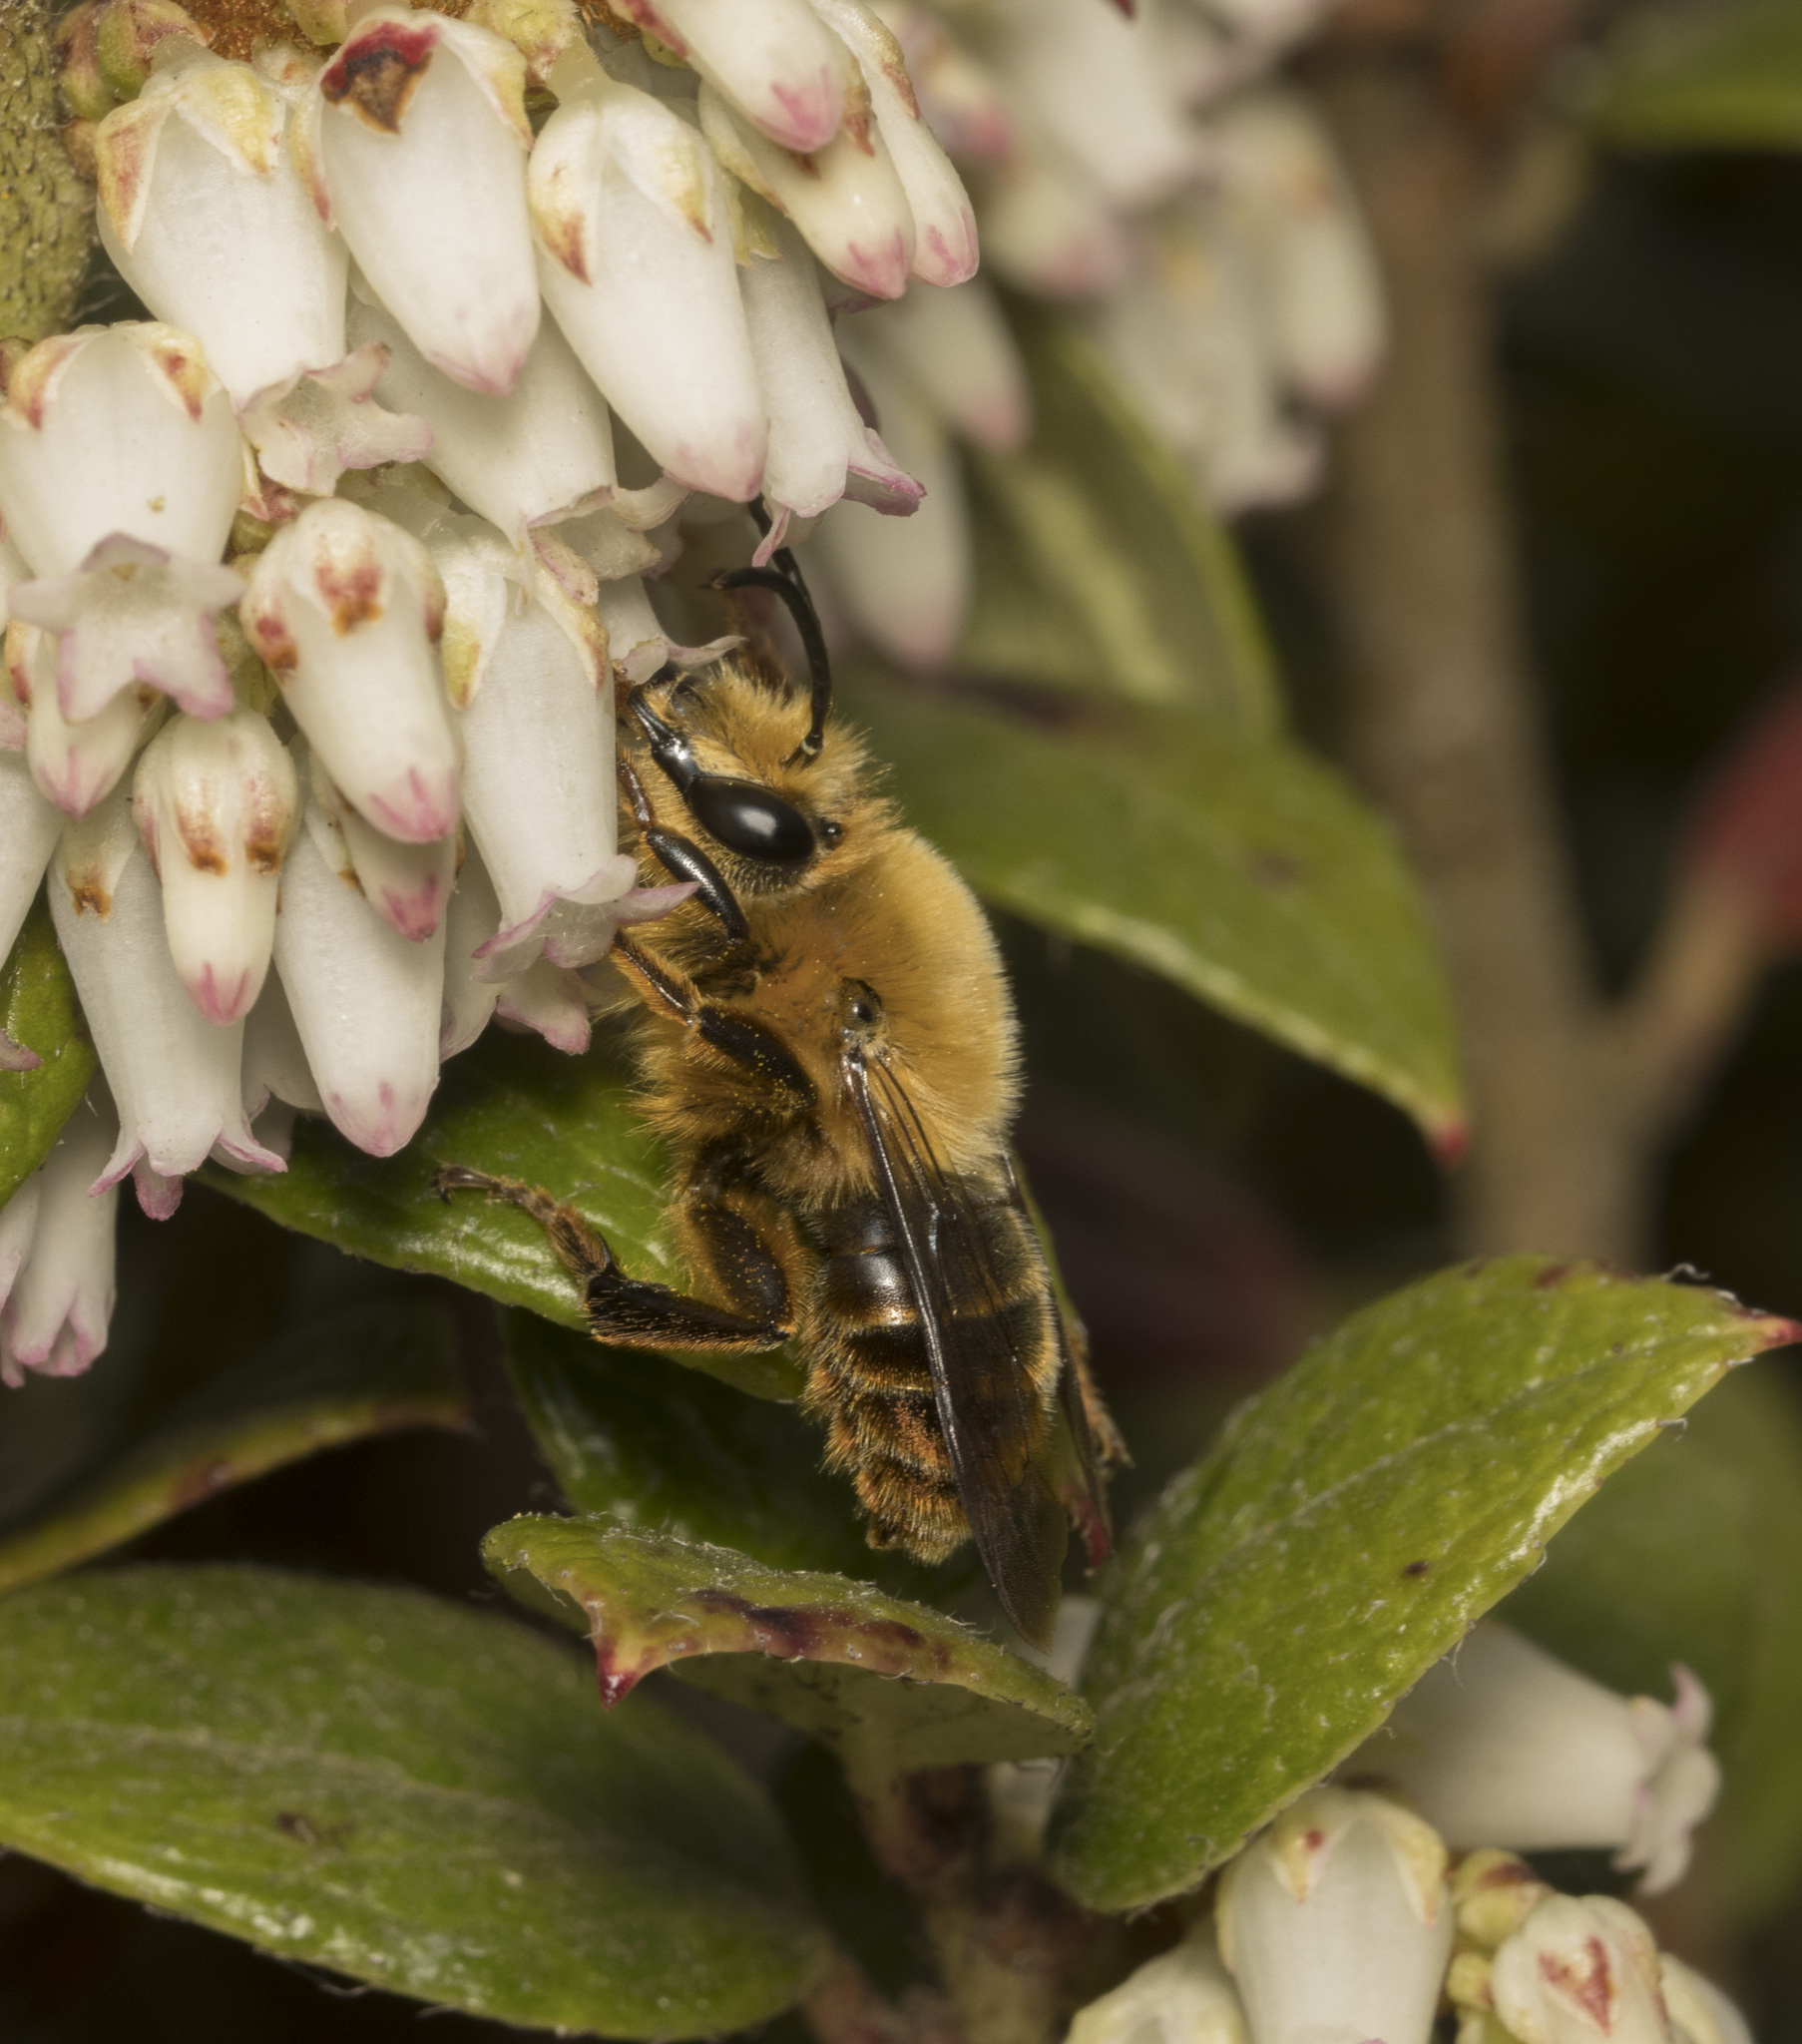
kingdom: Animalia
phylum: Arthropoda
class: Insecta
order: Hymenoptera
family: Colletidae
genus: Cadeguala
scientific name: Cadeguala occidentalis
